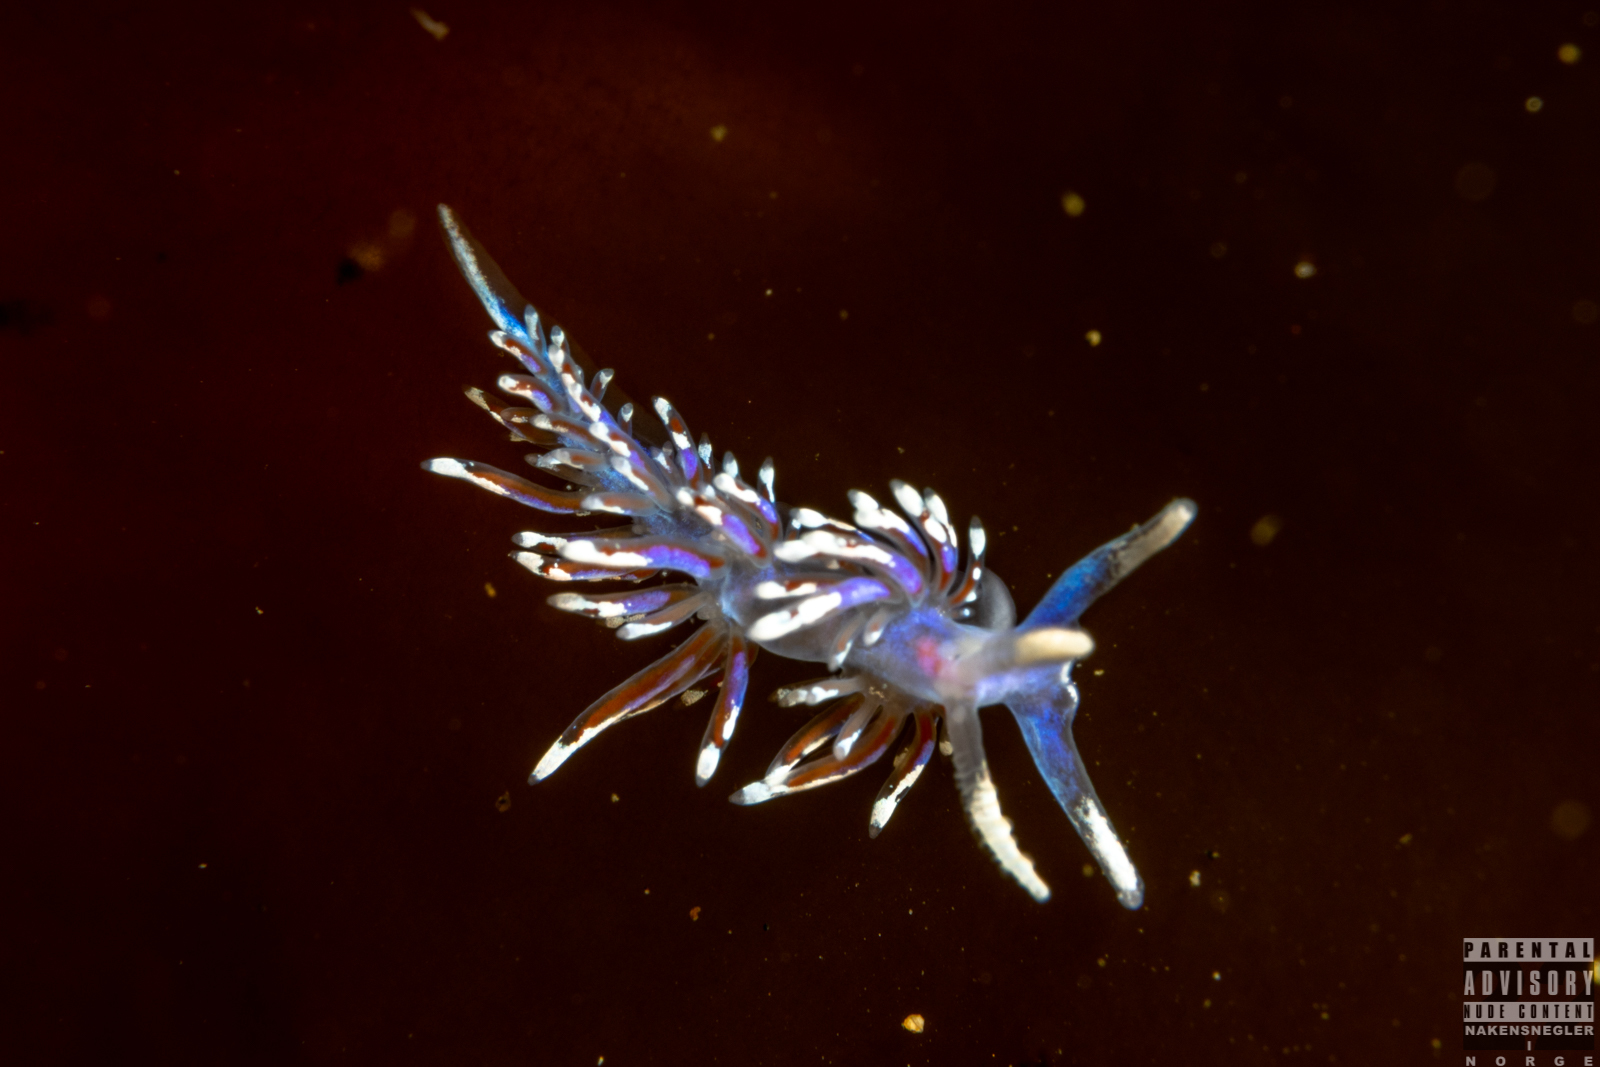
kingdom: Animalia
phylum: Mollusca
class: Gastropoda
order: Nudibranchia
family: Facelinidae
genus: Facelina
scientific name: Facelina auriculata
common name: Slender facelina
